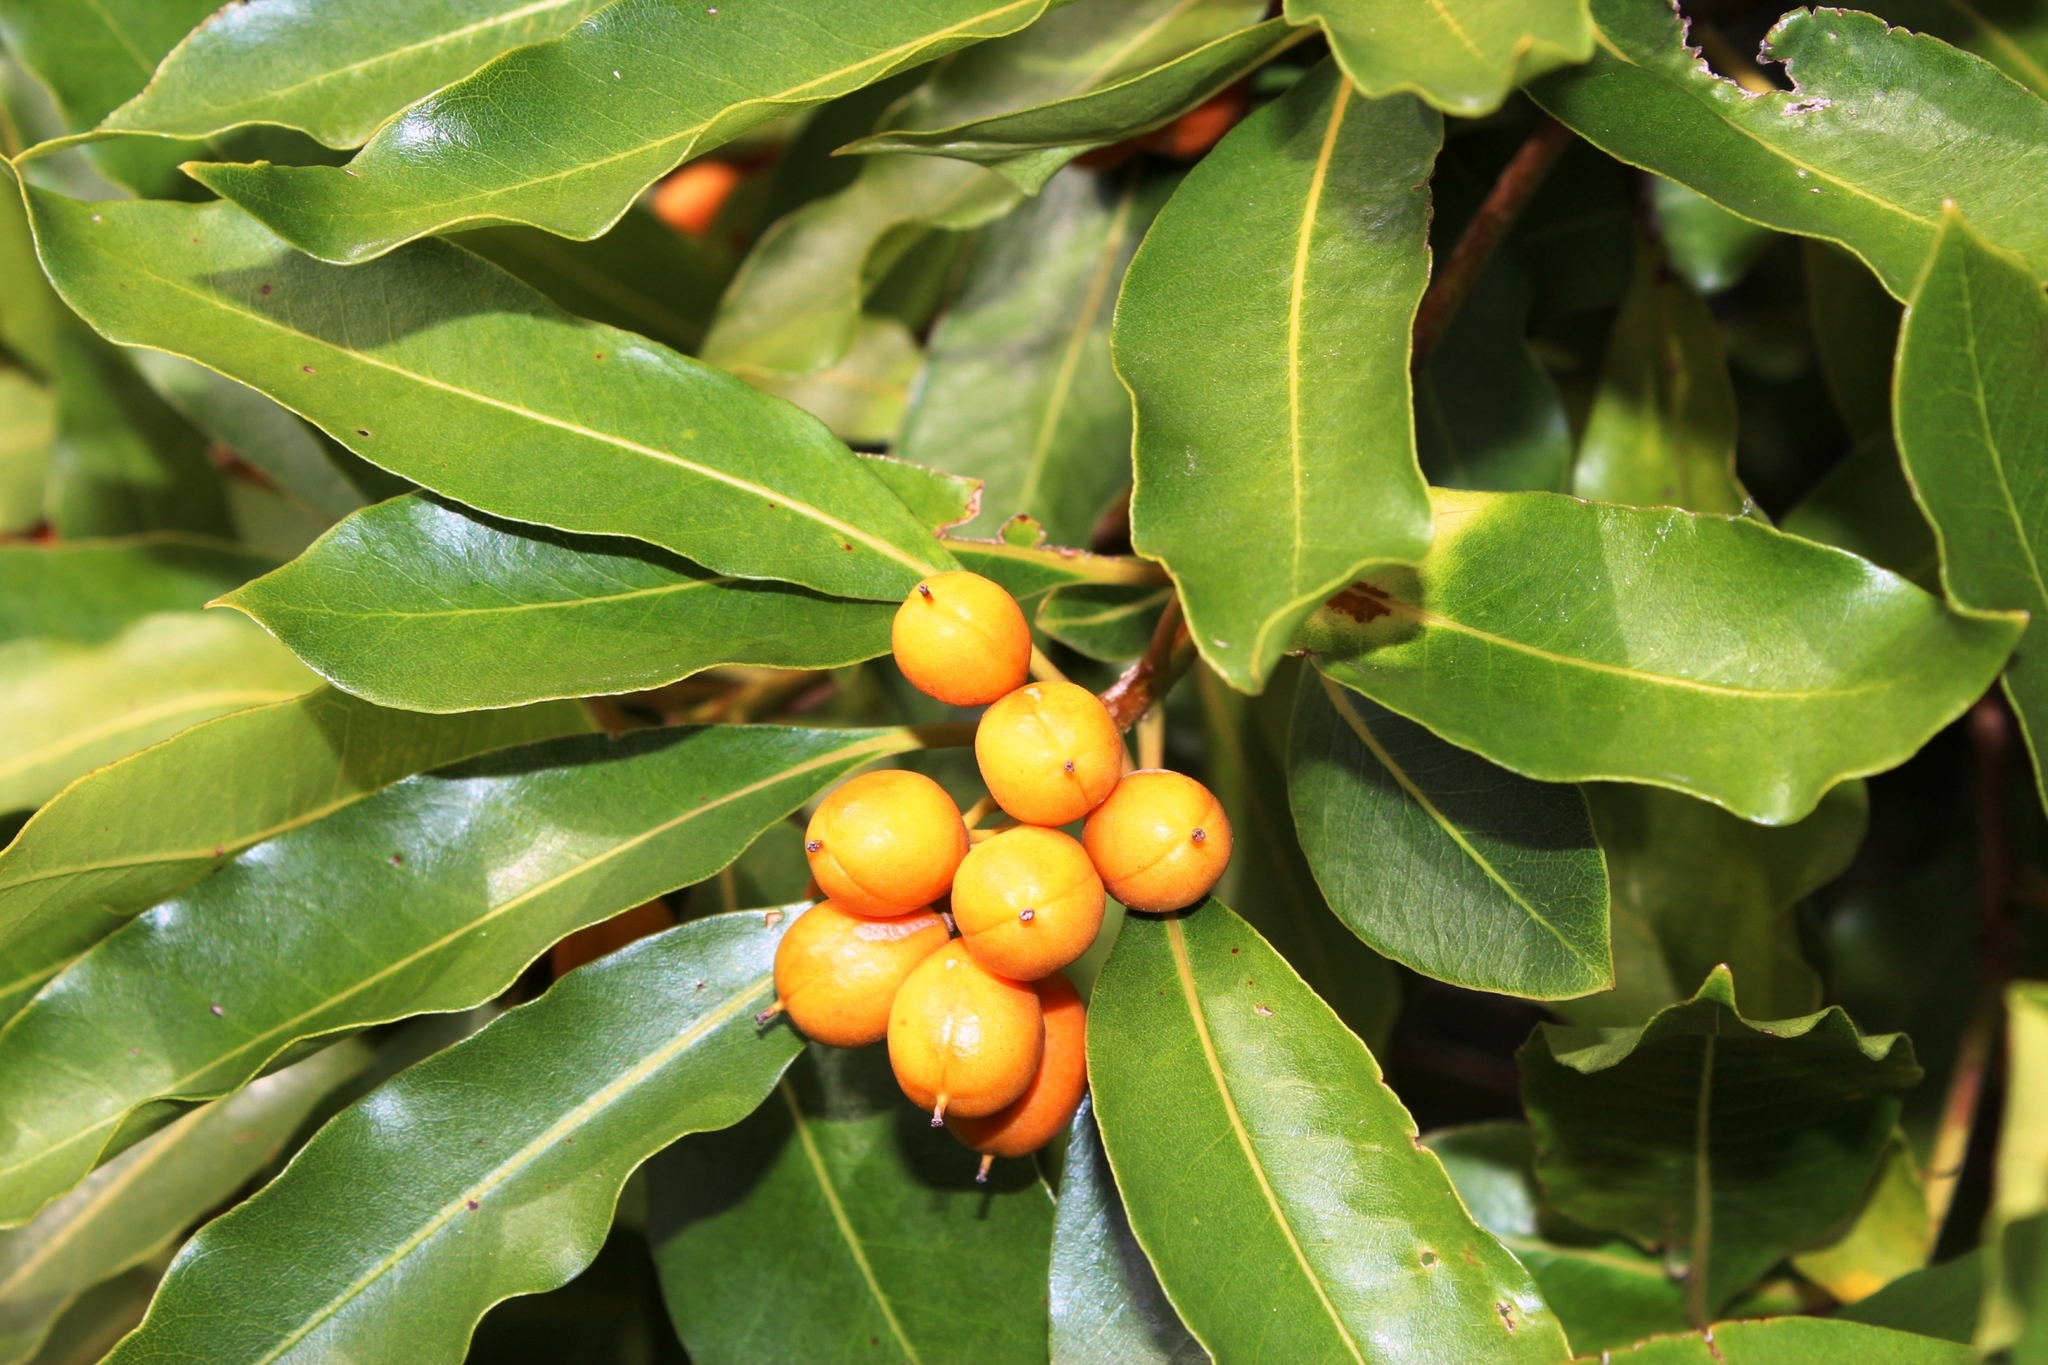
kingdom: Plantae
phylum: Tracheophyta
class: Magnoliopsida
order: Apiales
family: Pittosporaceae
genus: Pittosporum
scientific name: Pittosporum undulatum
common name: Australian cheesewood
